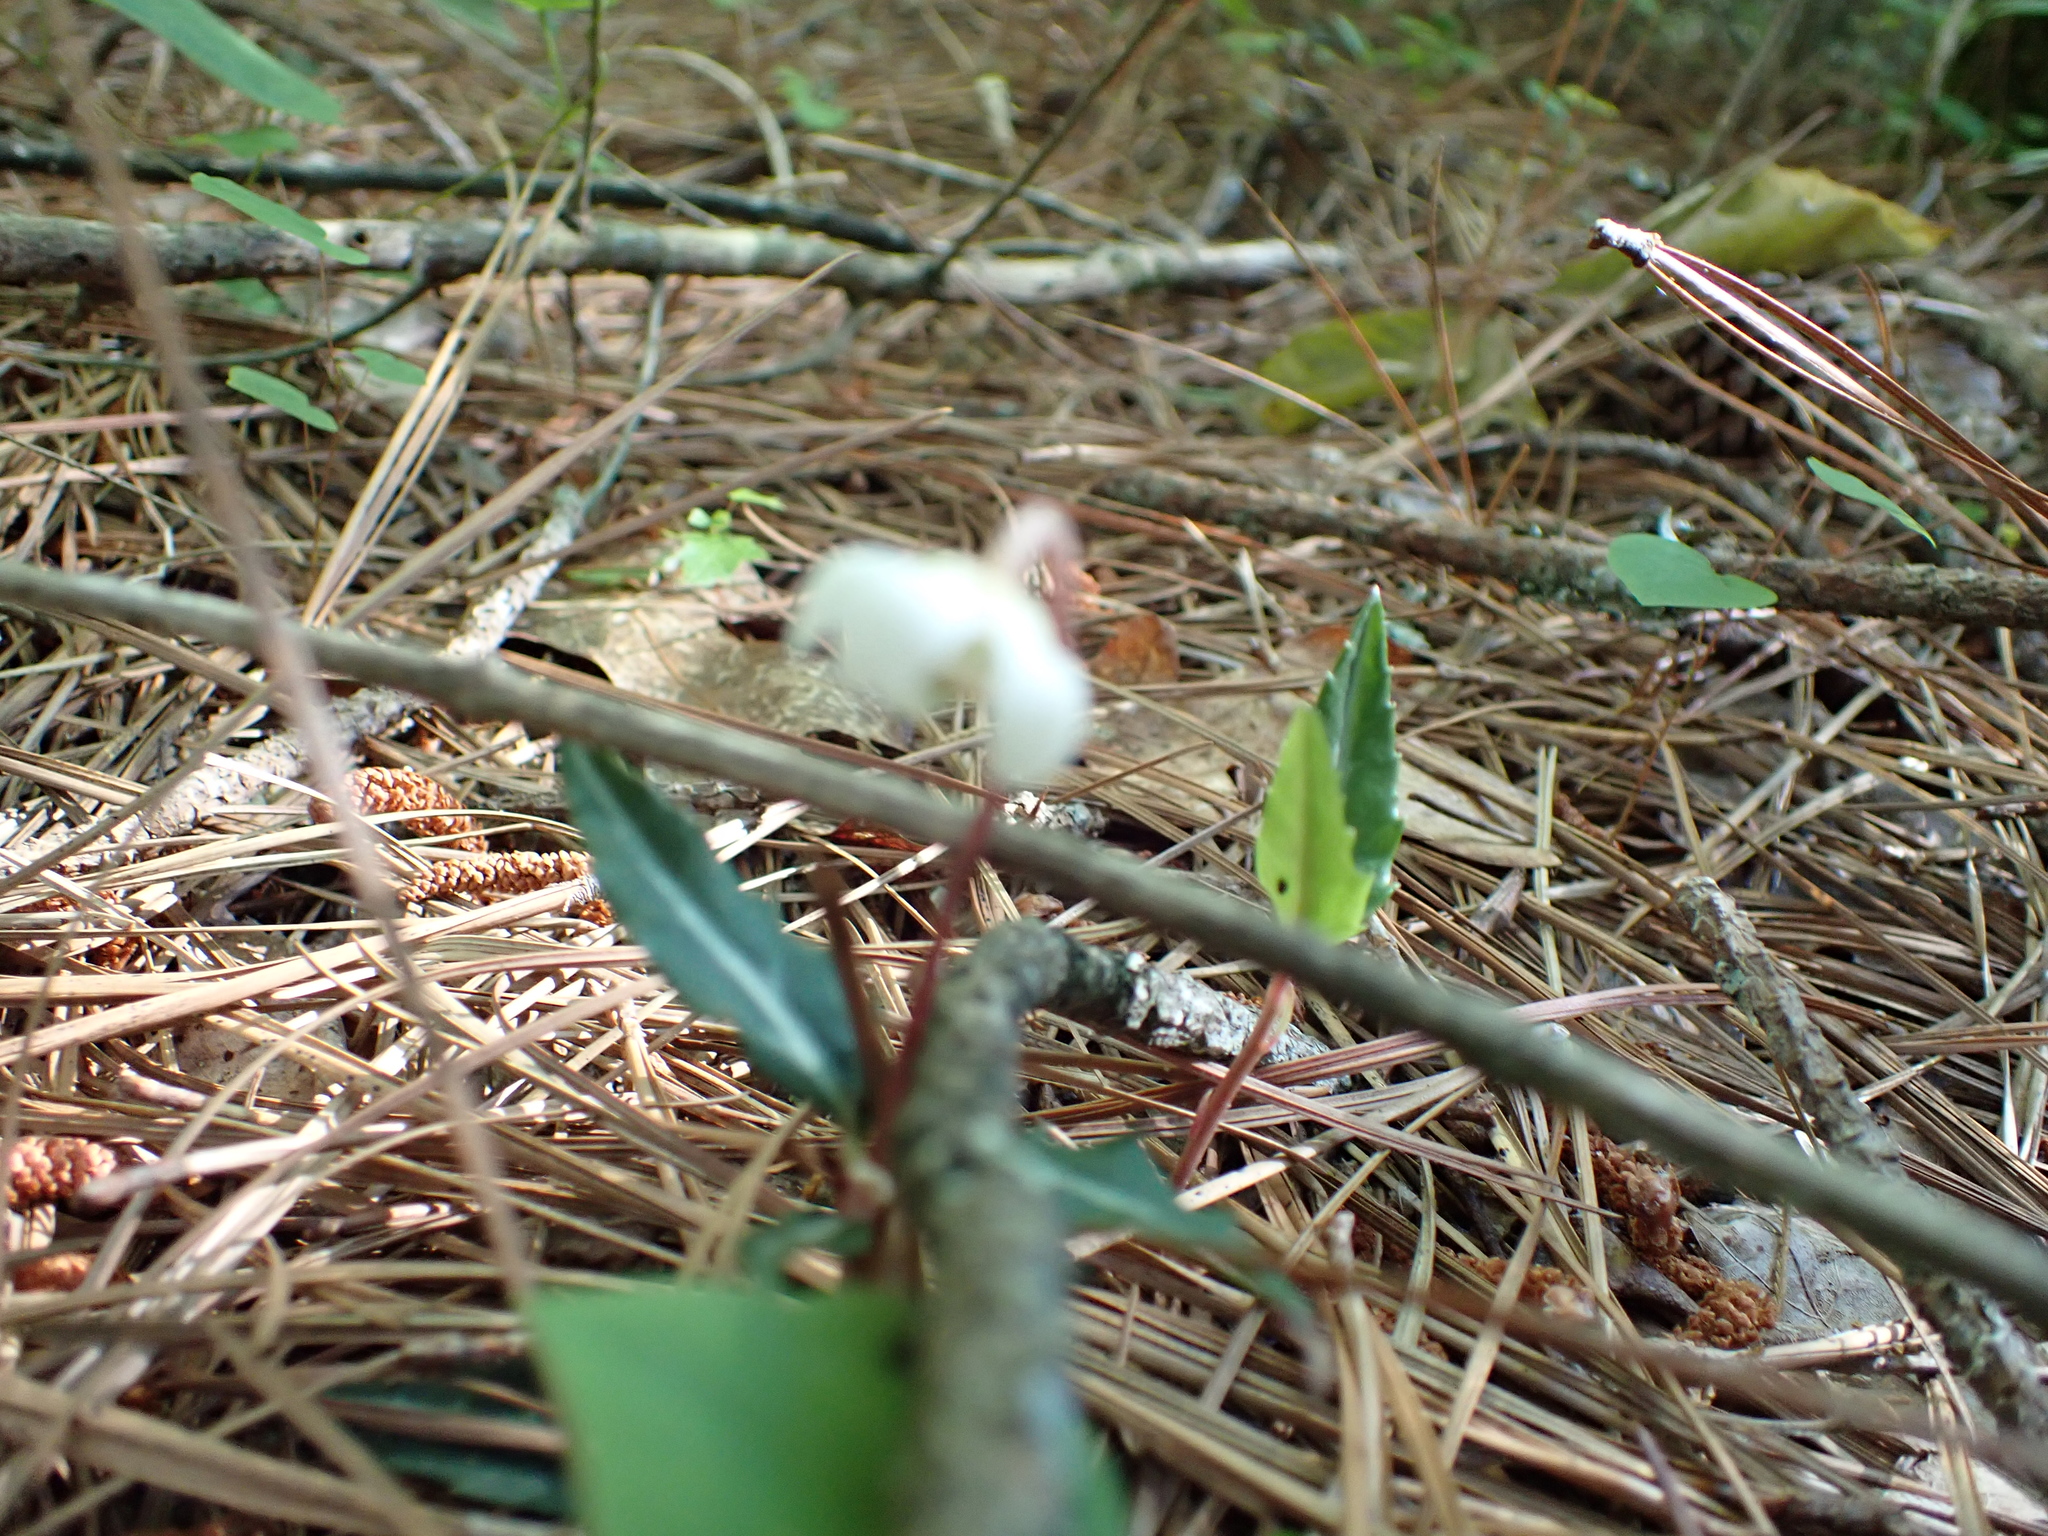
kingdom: Plantae
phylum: Tracheophyta
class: Magnoliopsida
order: Ericales
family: Ericaceae
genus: Chimaphila
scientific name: Chimaphila maculata
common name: Spotted pipsissewa
